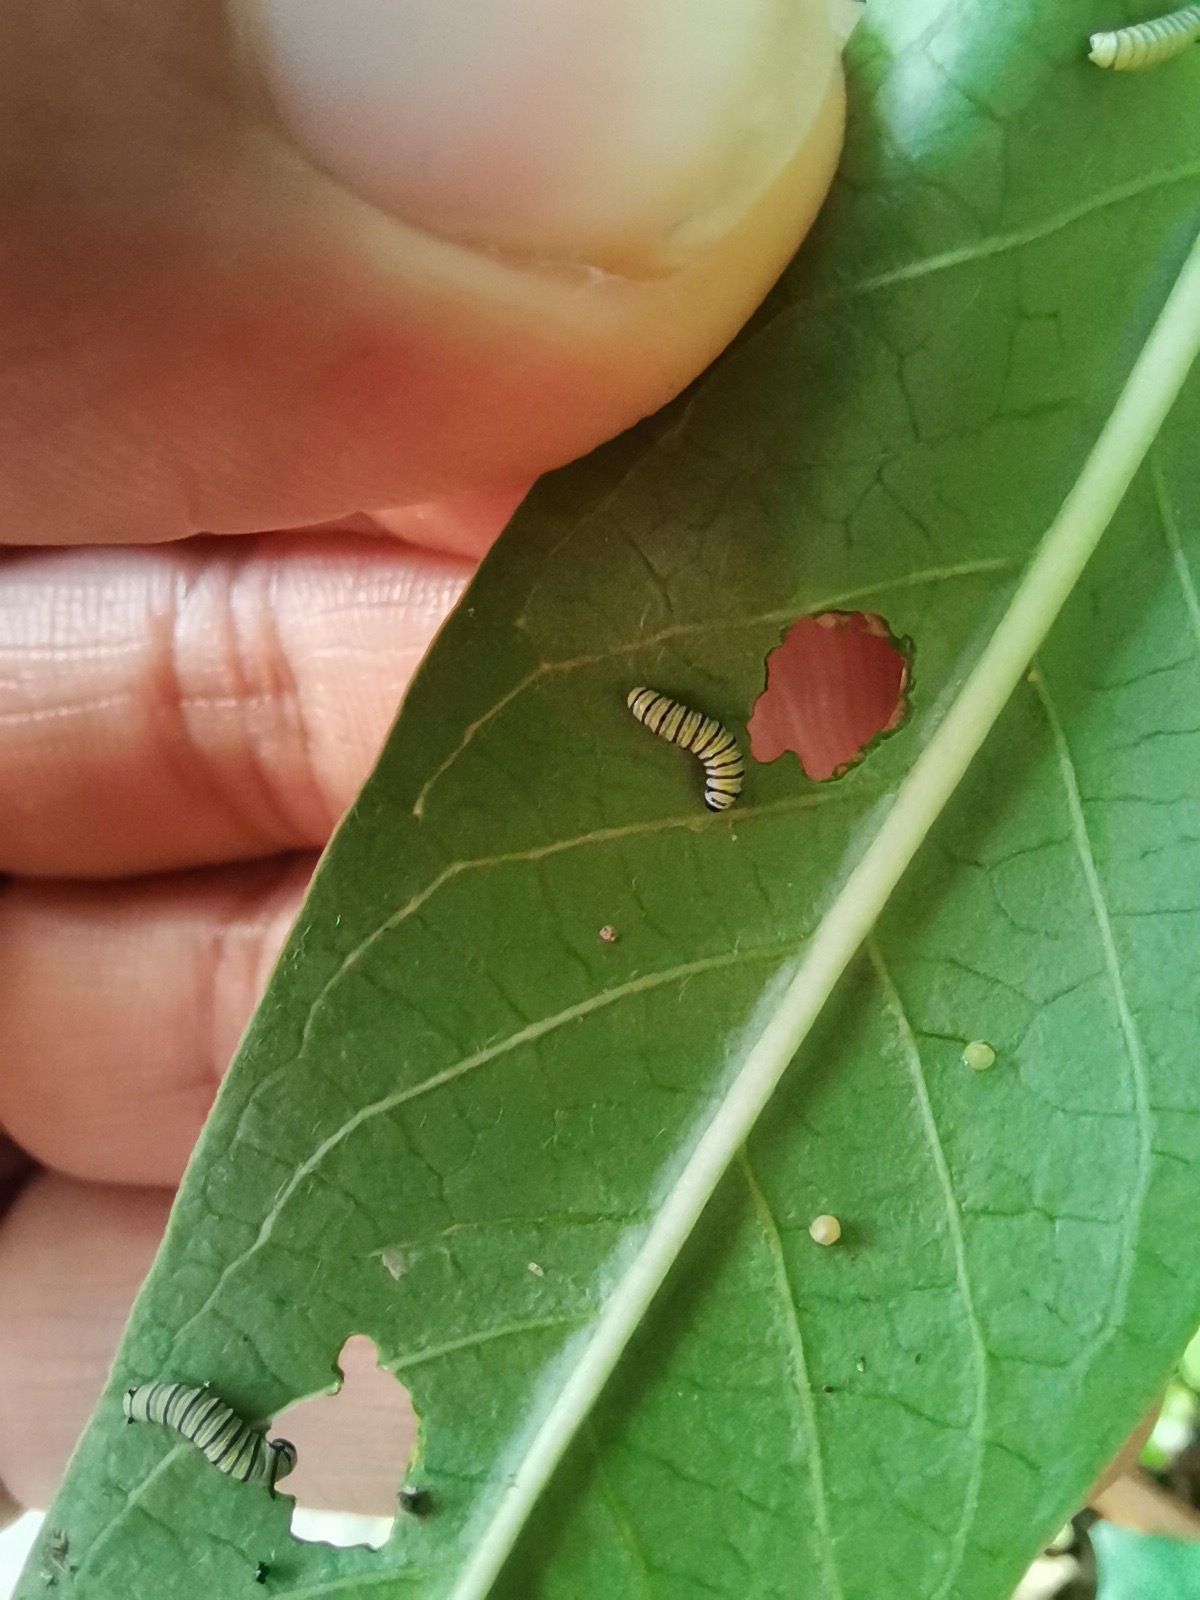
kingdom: Animalia
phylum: Arthropoda
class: Insecta
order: Lepidoptera
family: Nymphalidae
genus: Danaus
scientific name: Danaus plexippus
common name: Monarch
